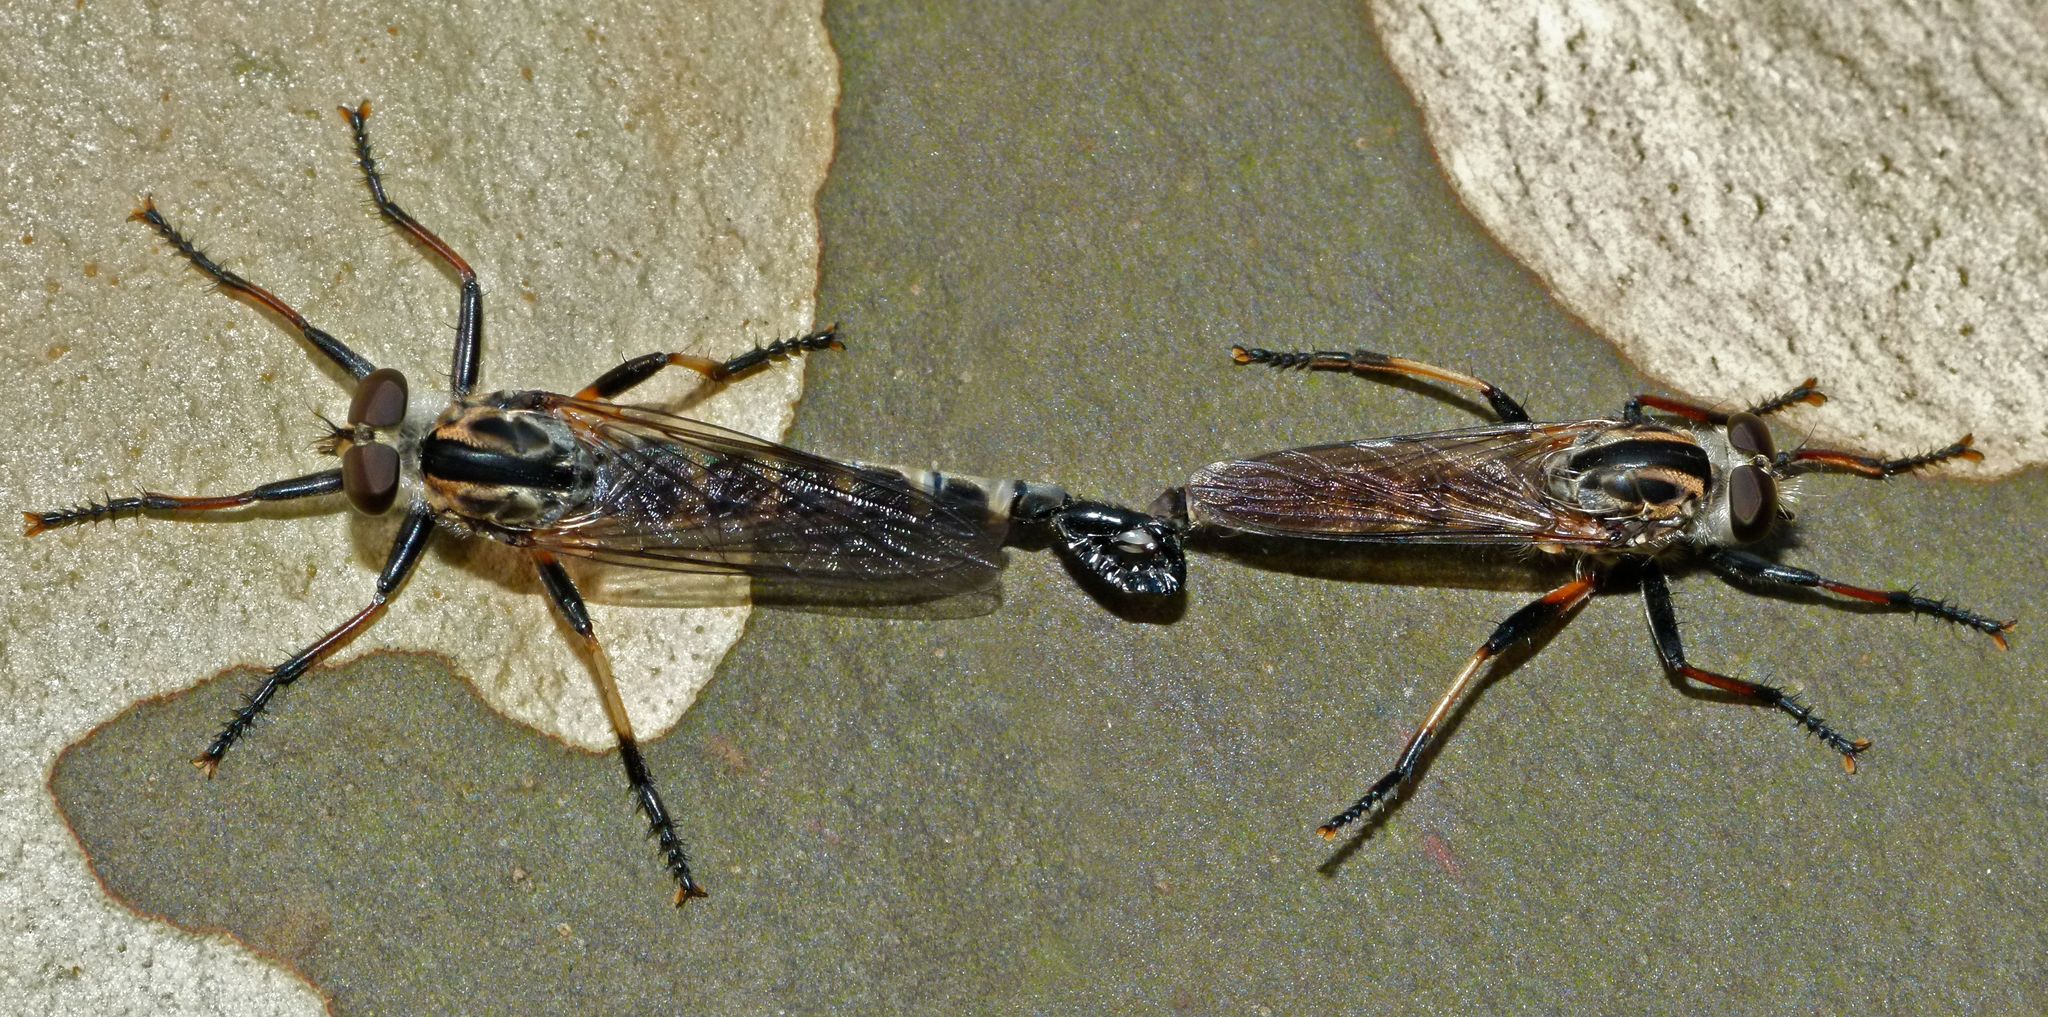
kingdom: Animalia
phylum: Arthropoda
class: Insecta
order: Diptera
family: Asilidae
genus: Cerdistus
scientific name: Cerdistus fuscipennis
